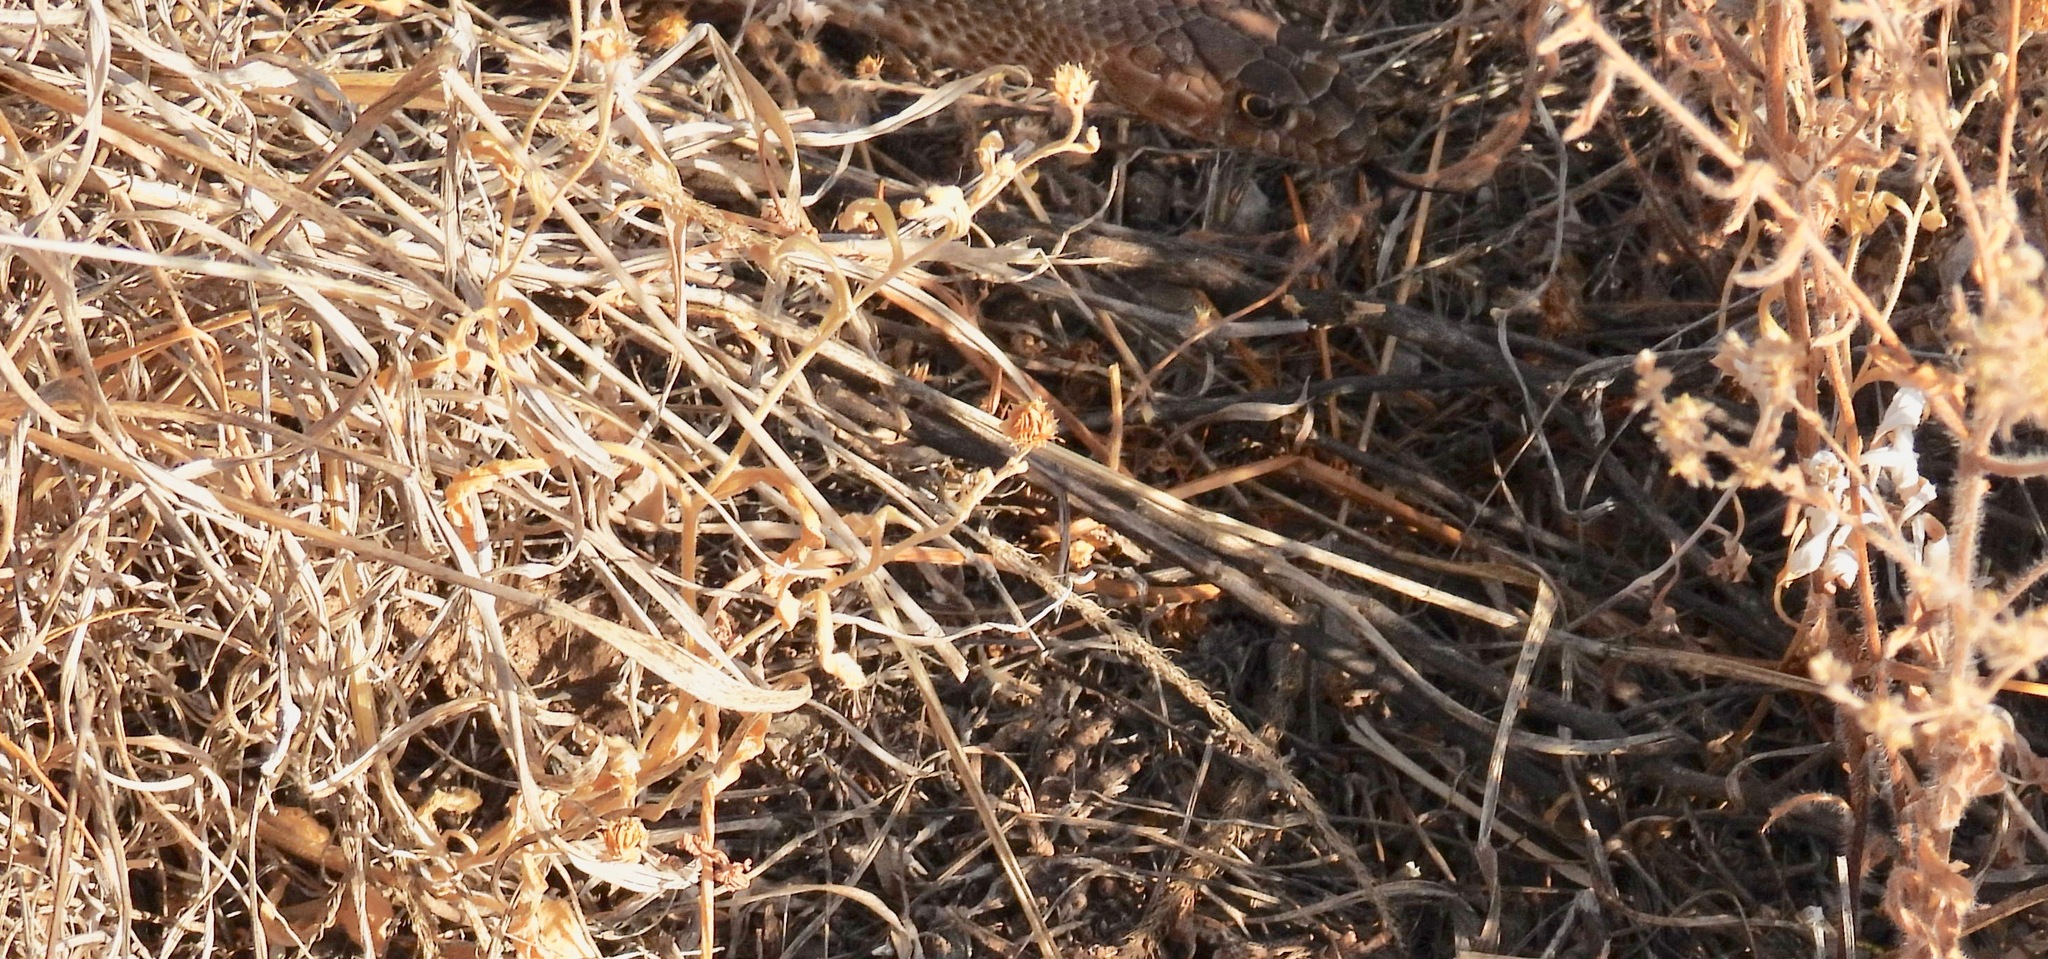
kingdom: Animalia
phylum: Chordata
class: Squamata
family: Colubridae
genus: Masticophis
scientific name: Masticophis flagellum
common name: Coachwhip
